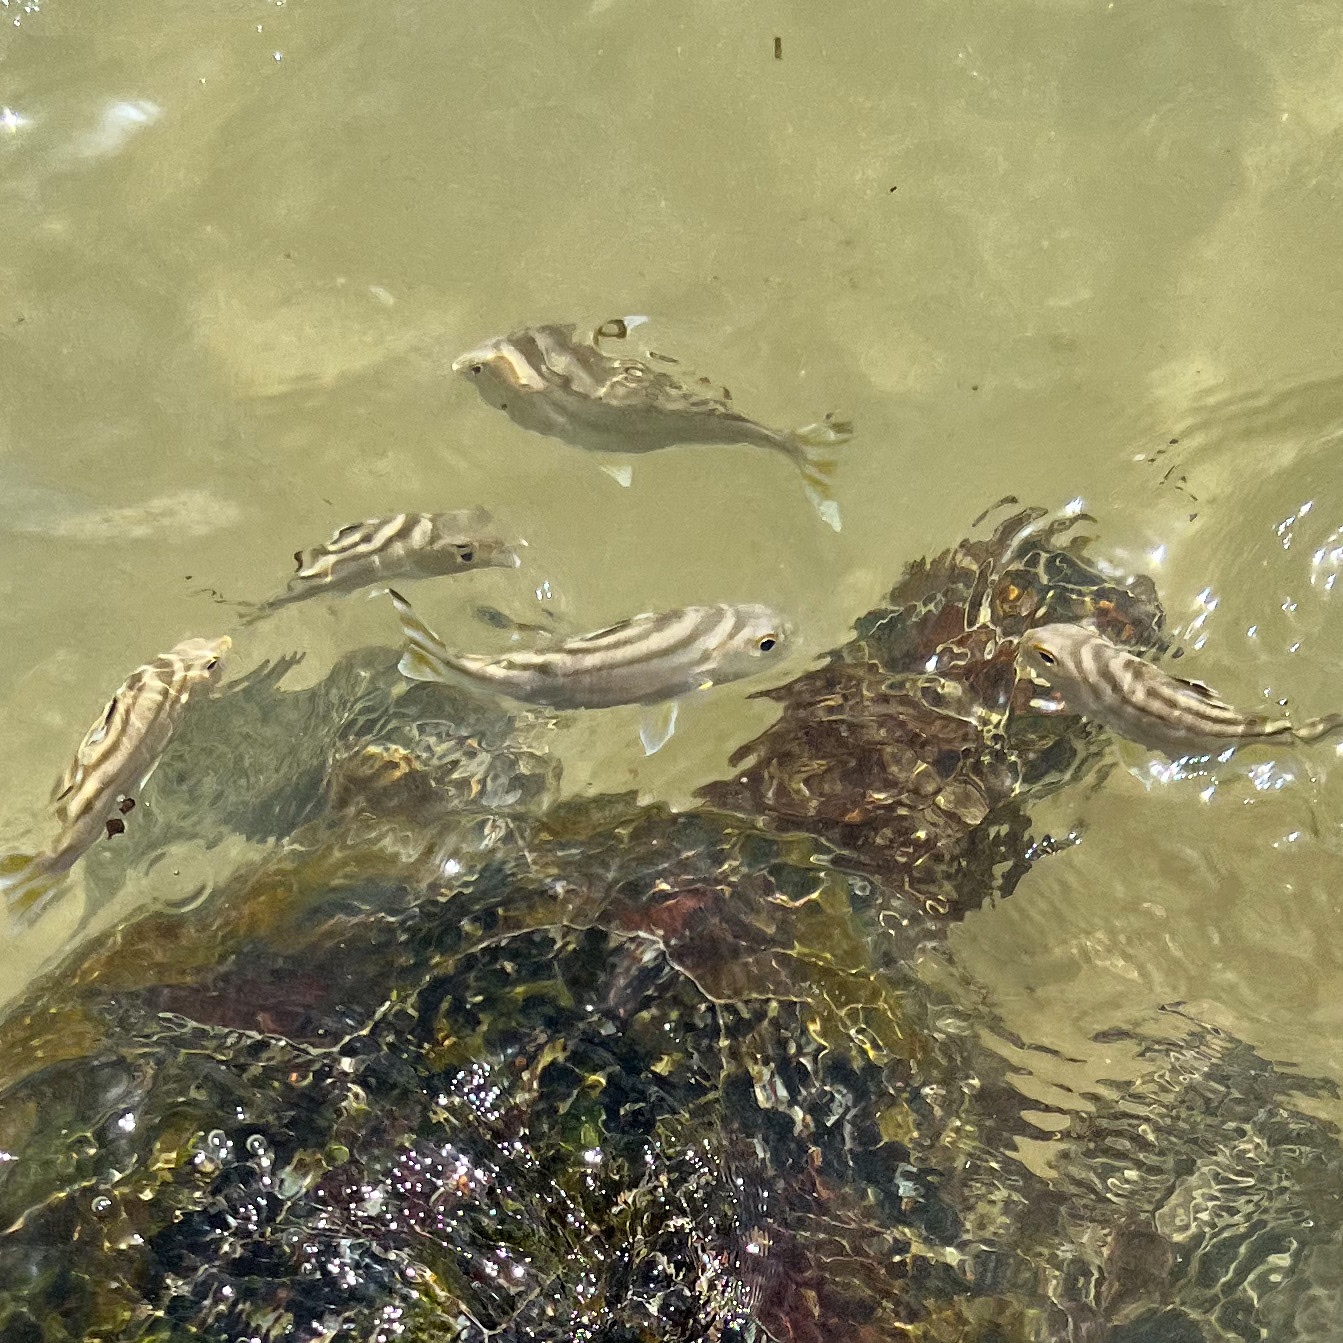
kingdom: Animalia
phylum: Chordata
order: Perciformes
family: Terapontidae
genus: Terapon
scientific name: Terapon jarbua
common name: Jarbua terapon
